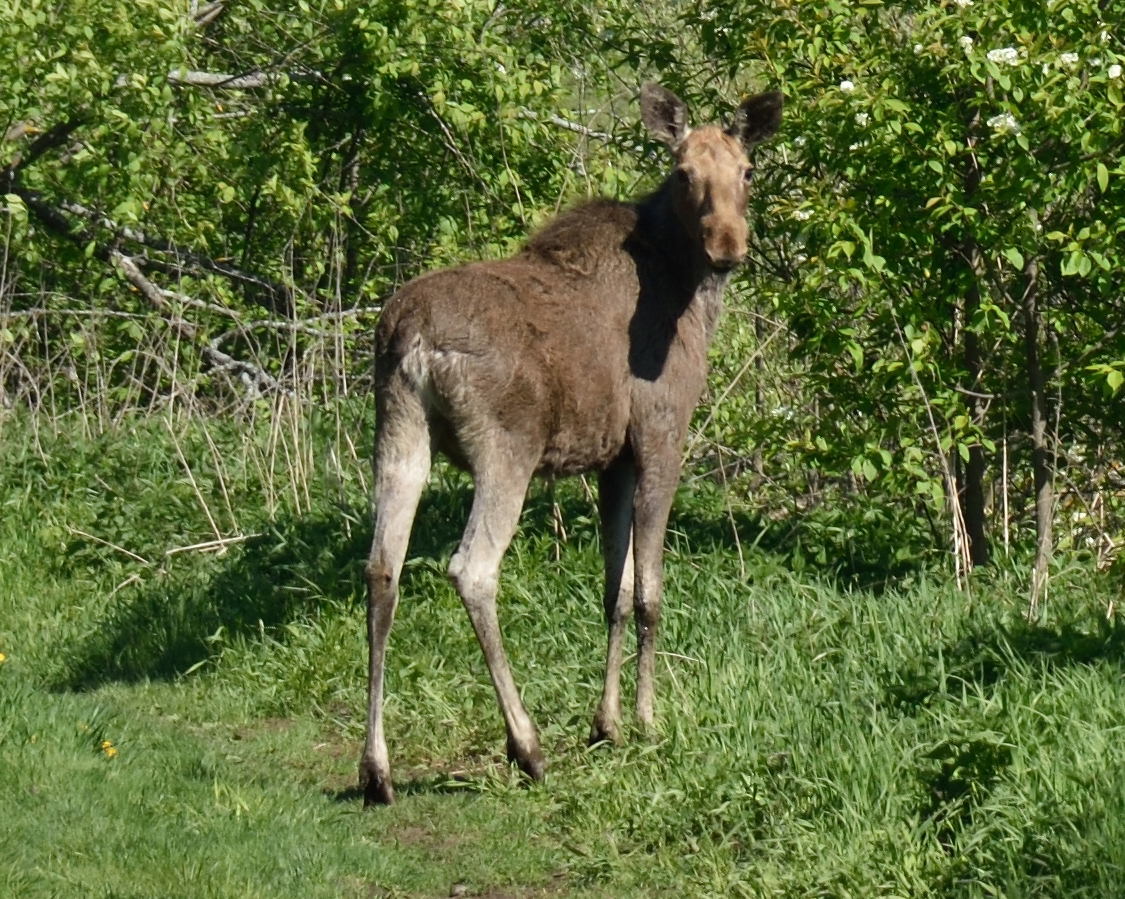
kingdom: Animalia
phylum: Chordata
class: Mammalia
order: Artiodactyla
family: Cervidae
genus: Alces
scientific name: Alces alces
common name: Moose
